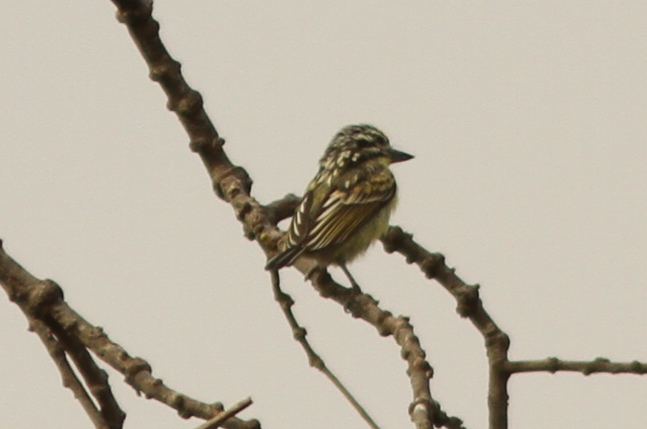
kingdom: Animalia
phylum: Chordata
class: Aves
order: Piciformes
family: Lybiidae
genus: Pogoniulus
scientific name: Pogoniulus chrysoconus
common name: Yellow-fronted tinkerbird
